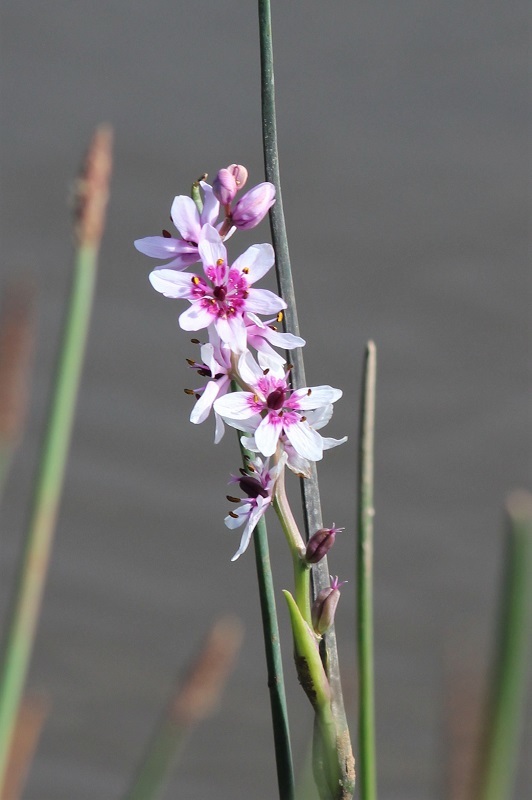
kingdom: Plantae
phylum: Tracheophyta
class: Liliopsida
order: Liliales
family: Colchicaceae
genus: Wurmbea
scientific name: Wurmbea stricta
